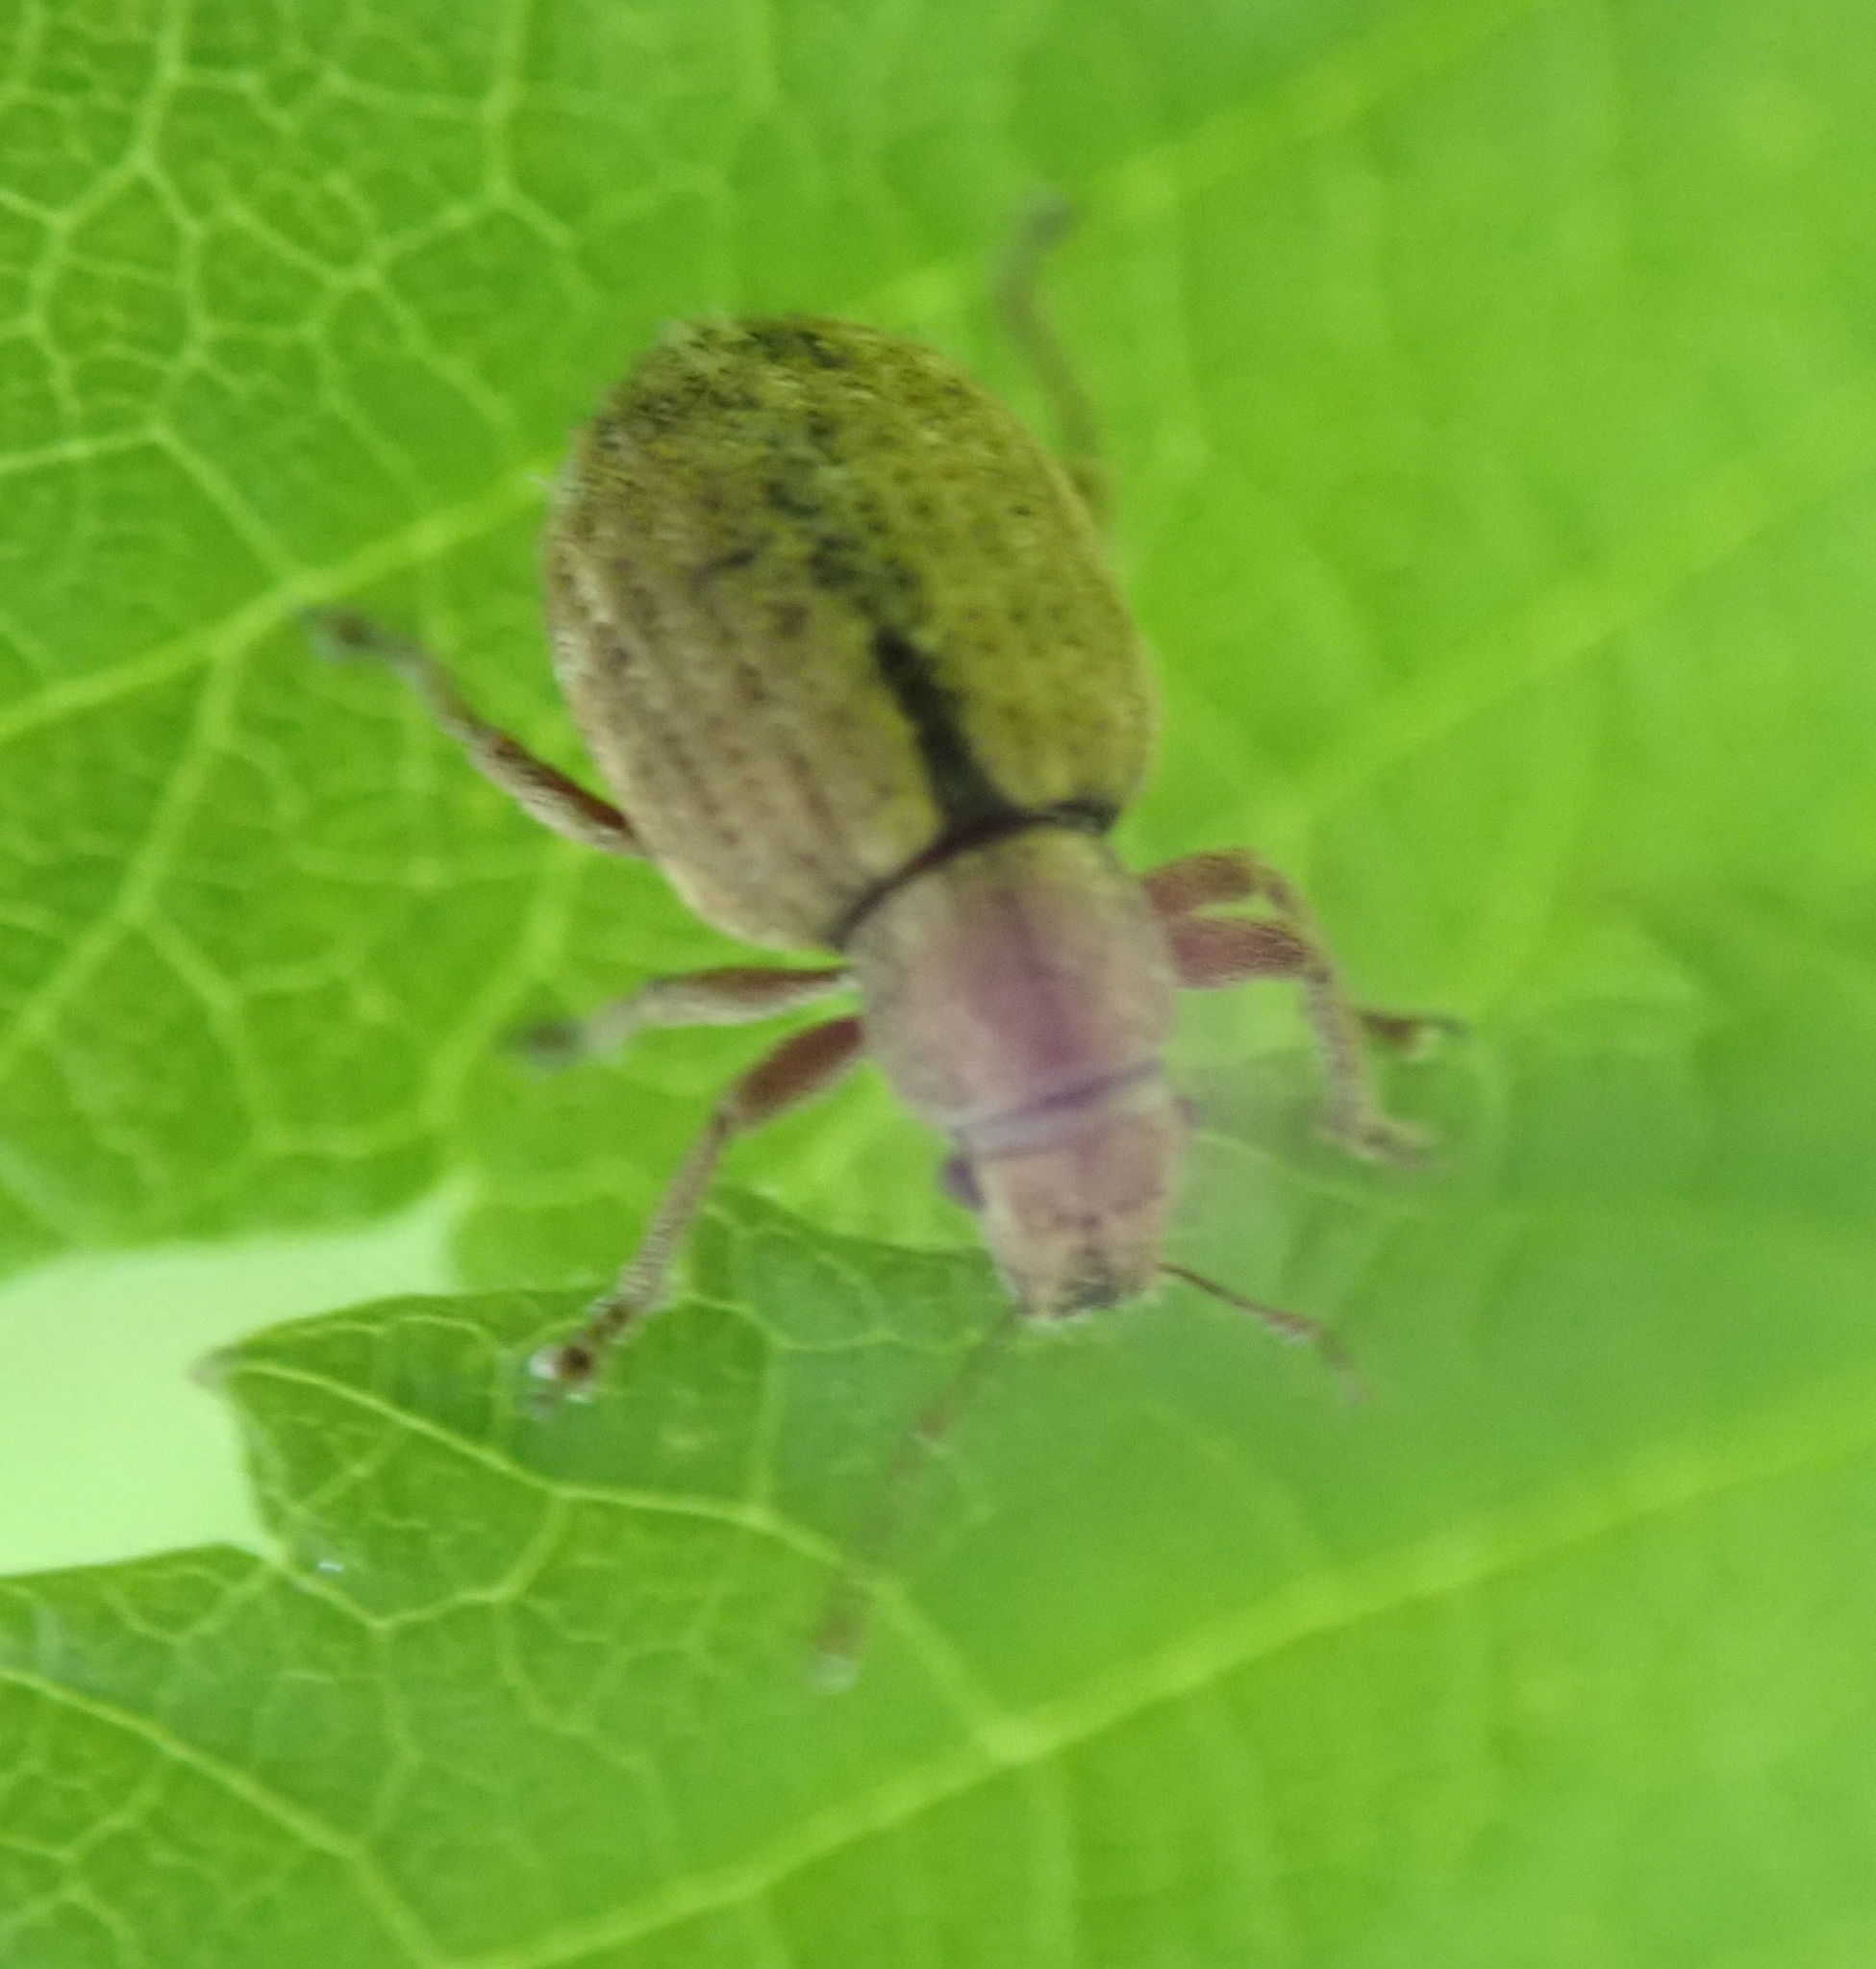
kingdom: Animalia
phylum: Arthropoda
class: Insecta
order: Coleoptera
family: Curculionidae
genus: Strophosoma
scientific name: Strophosoma melanogrammum
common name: Weevil
